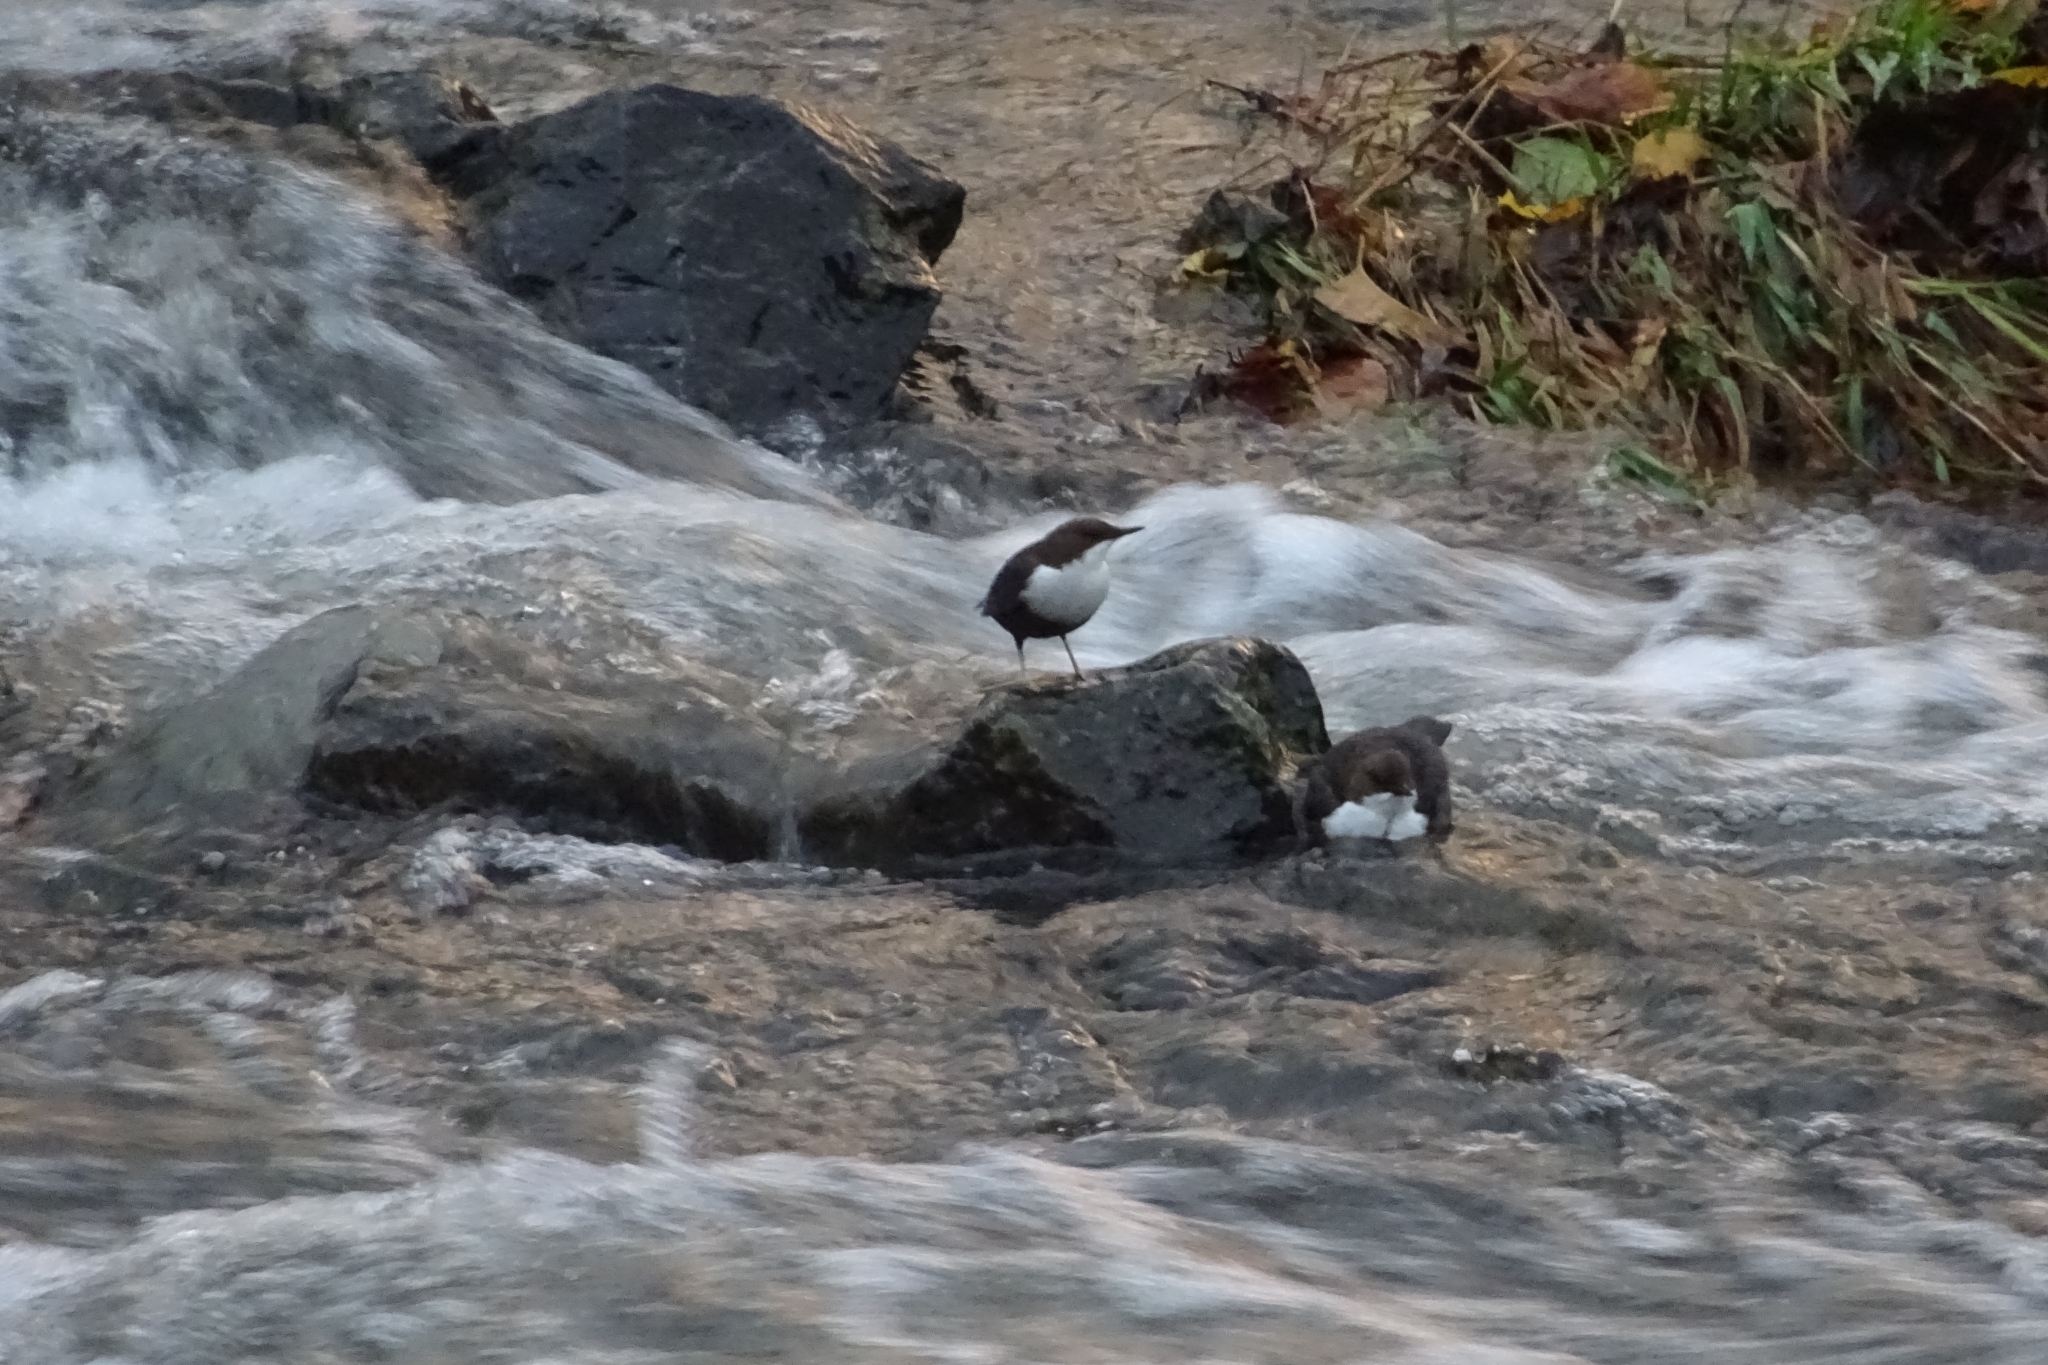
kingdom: Animalia
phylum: Chordata
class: Aves
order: Passeriformes
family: Cinclidae
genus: Cinclus
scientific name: Cinclus cinclus
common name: White-throated dipper
